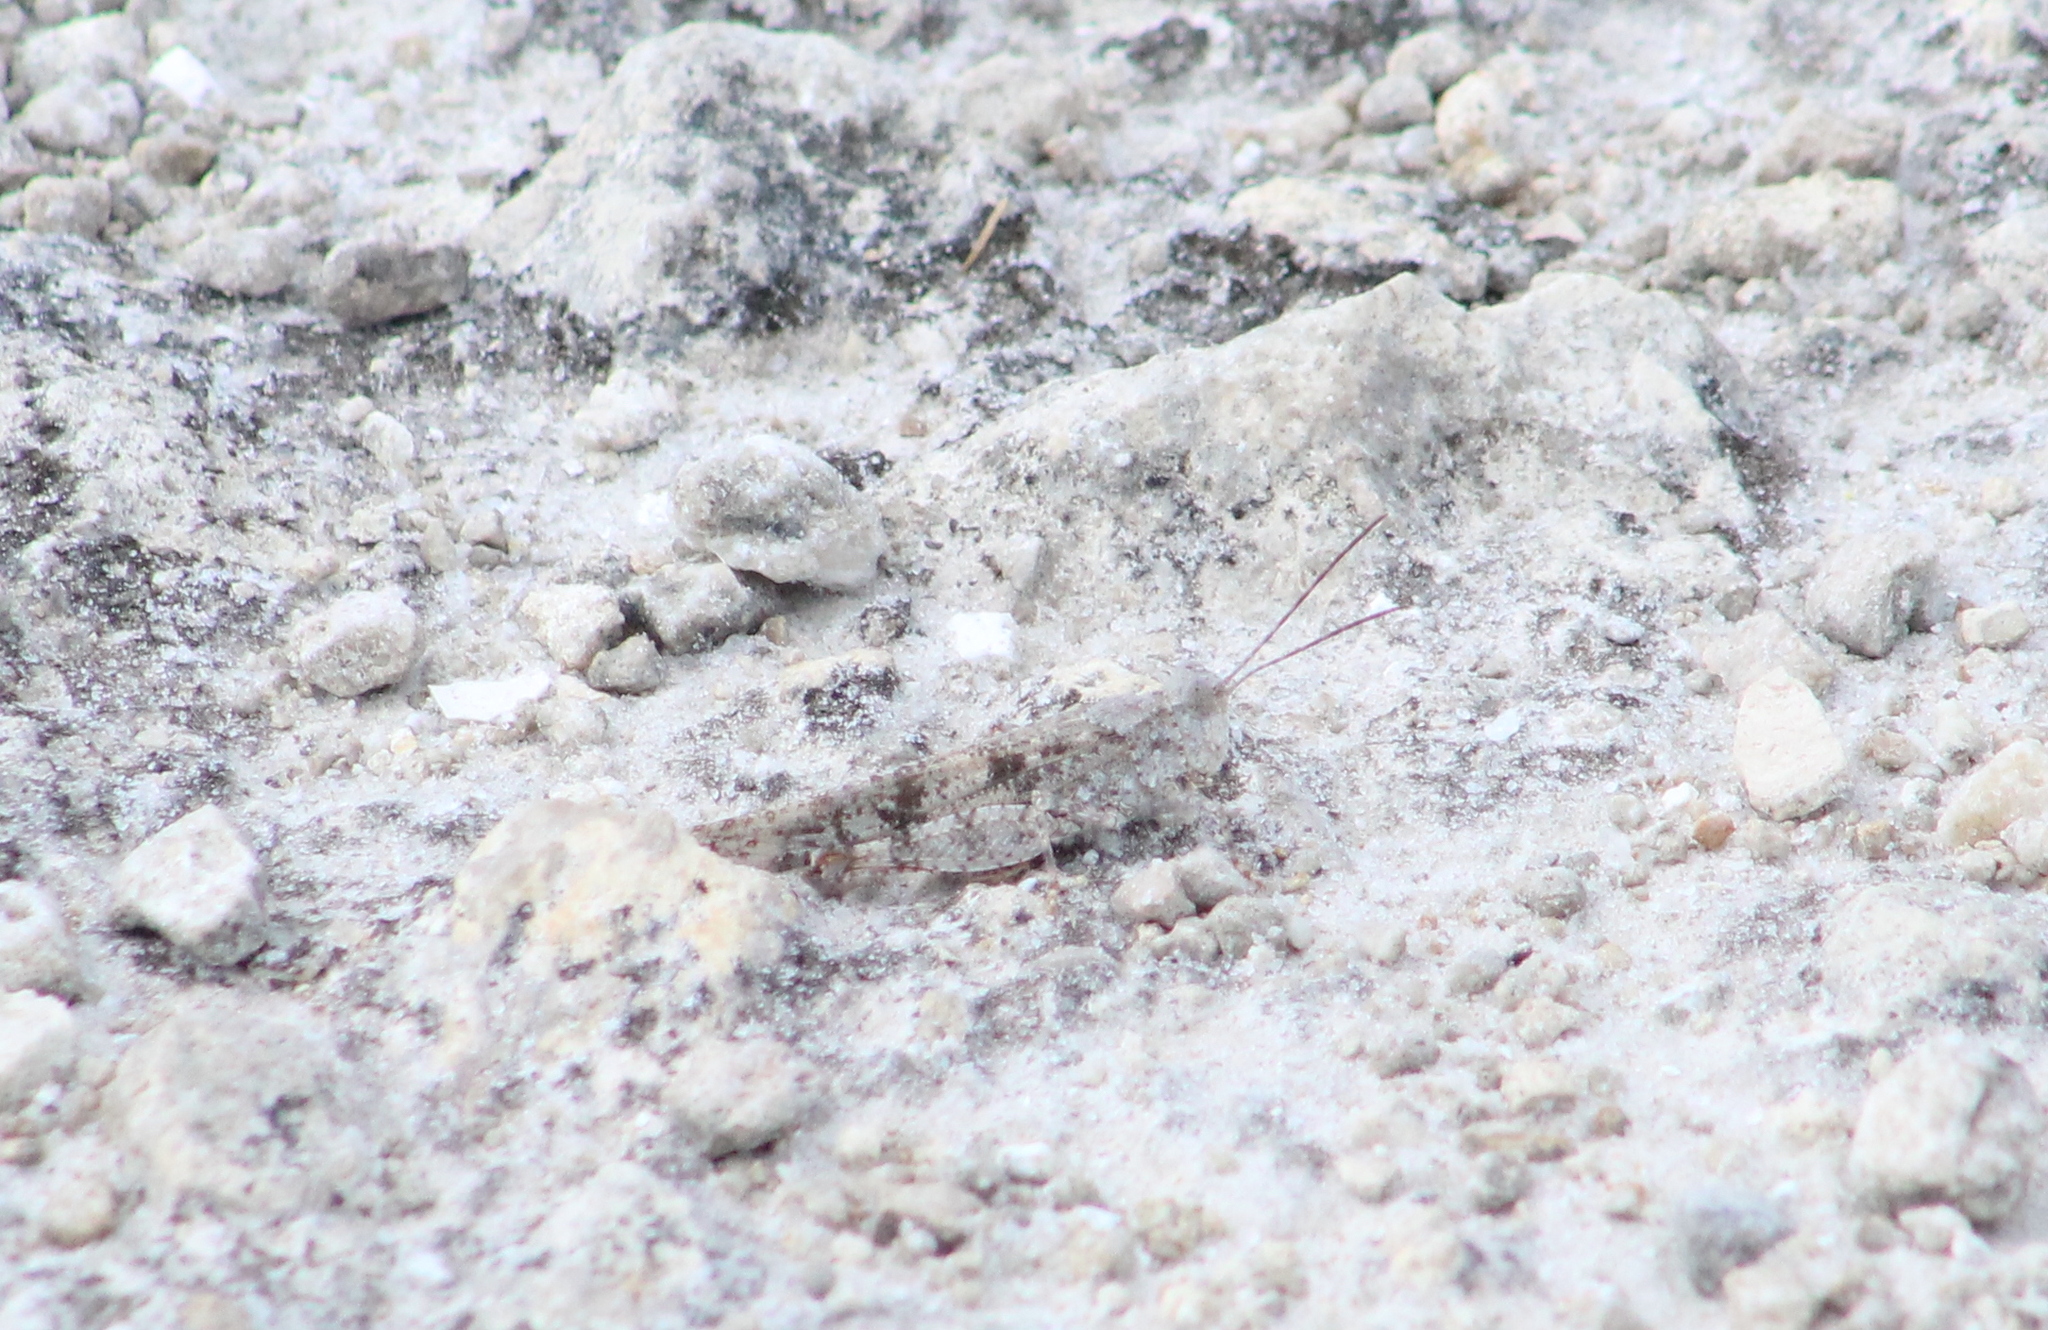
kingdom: Animalia
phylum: Arthropoda
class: Insecta
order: Orthoptera
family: Acrididae
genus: Trimerotropis
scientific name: Trimerotropis maritima
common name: Seaside locust
